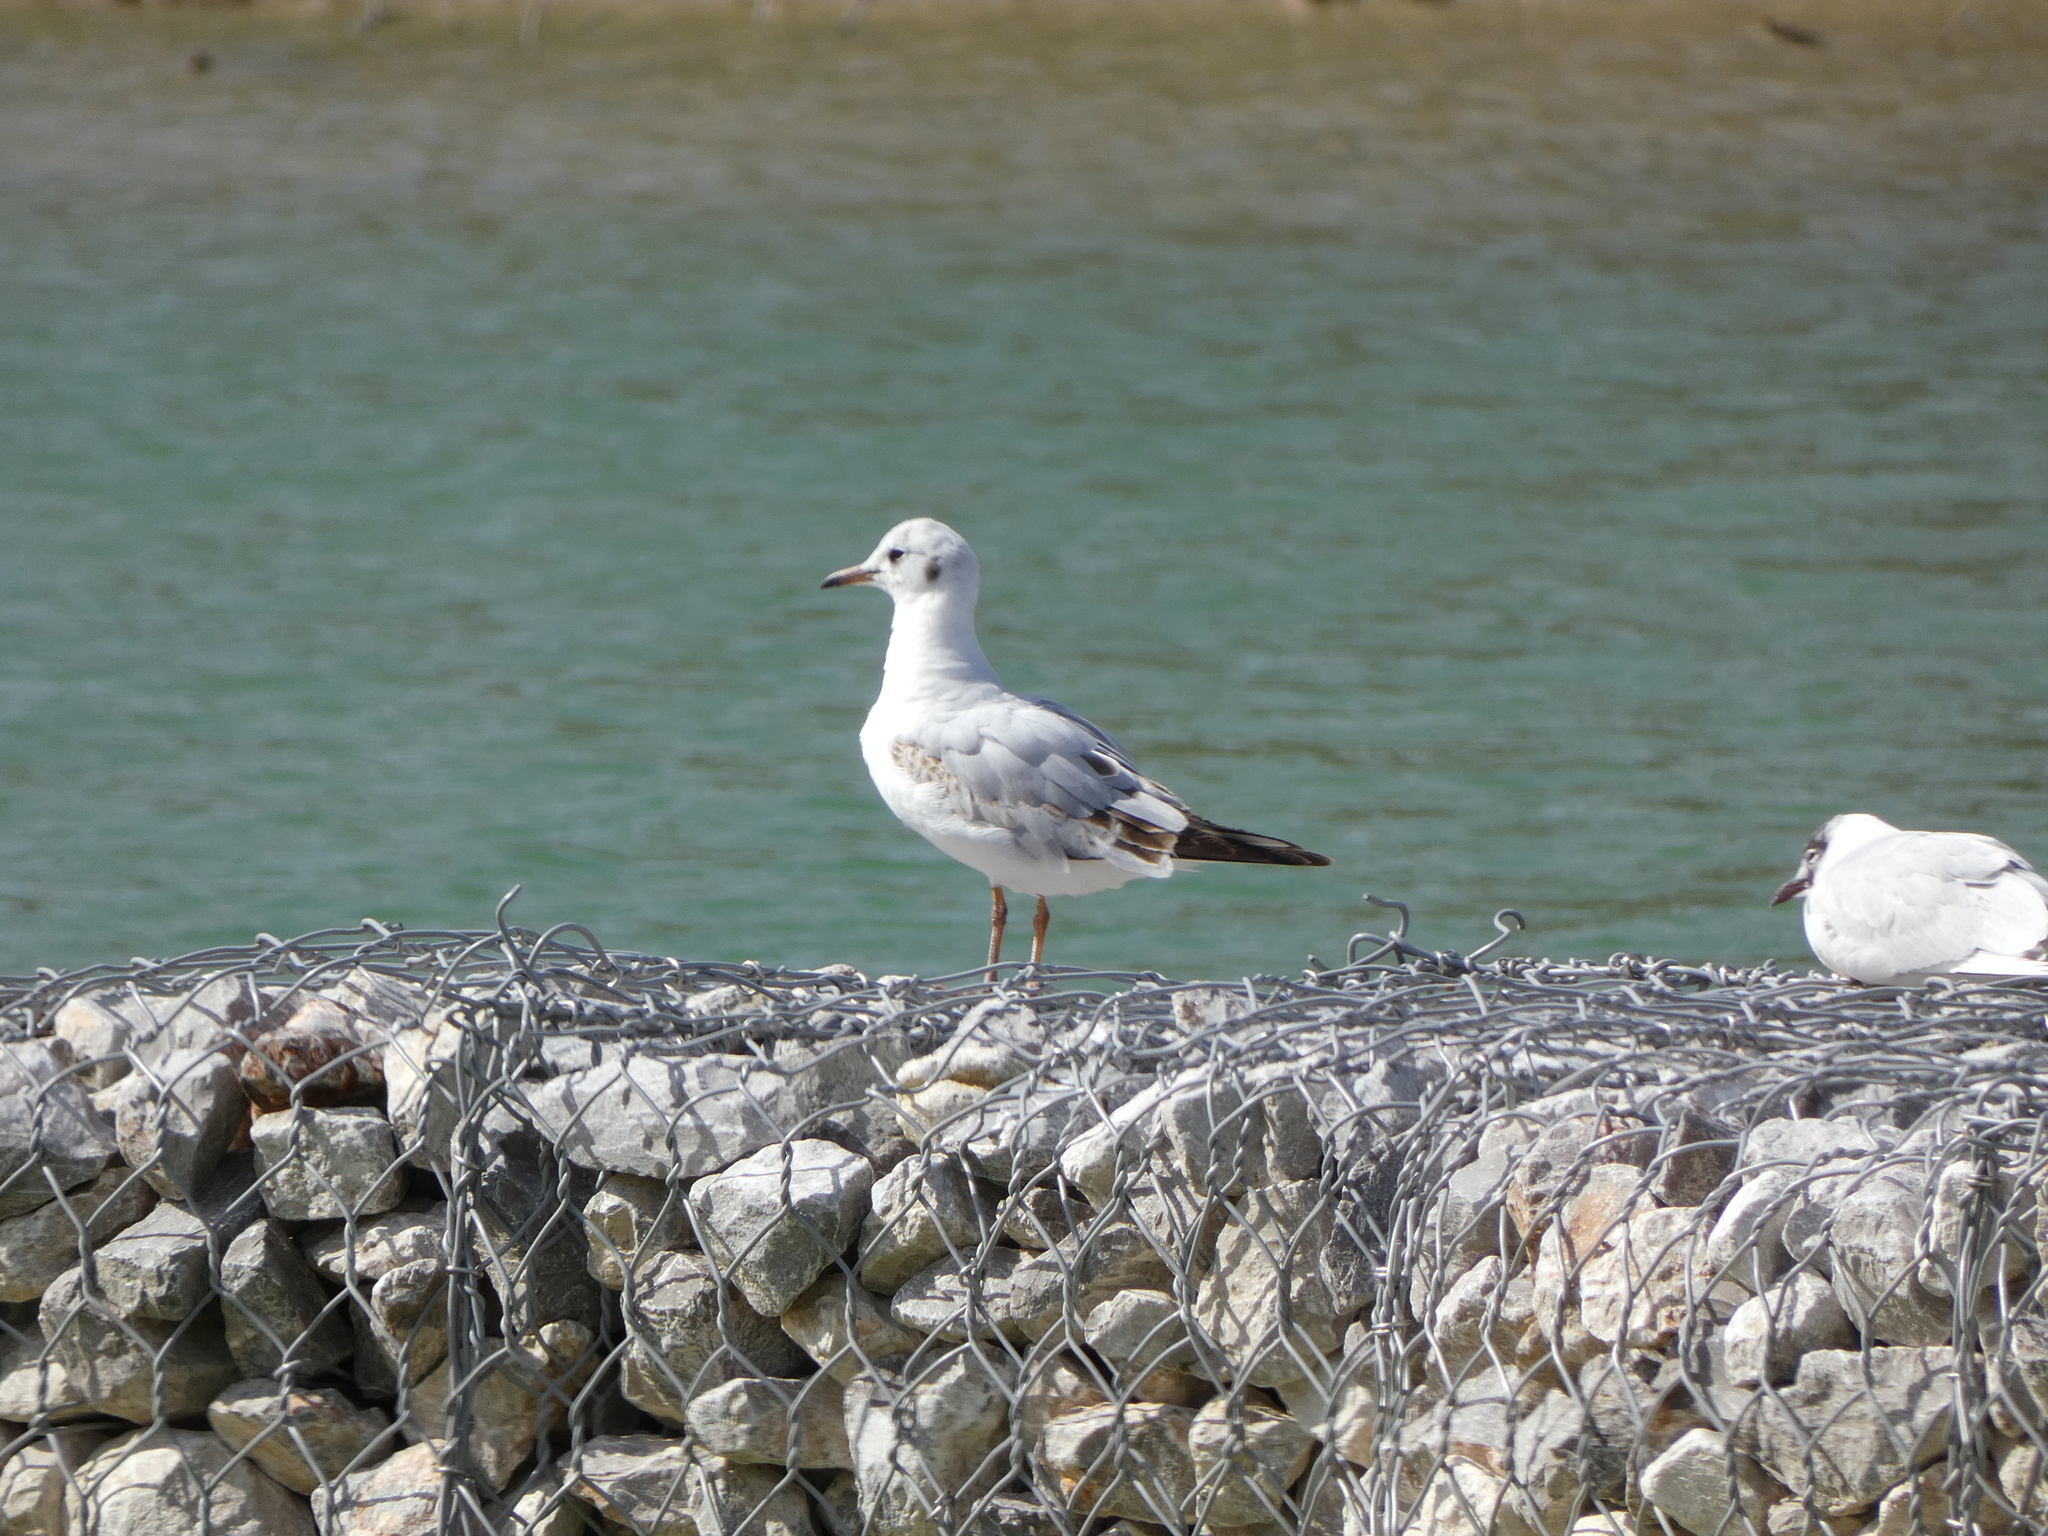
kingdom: Animalia
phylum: Chordata
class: Aves
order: Charadriiformes
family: Laridae
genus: Chroicocephalus
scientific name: Chroicocephalus ridibundus
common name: Black-headed gull
